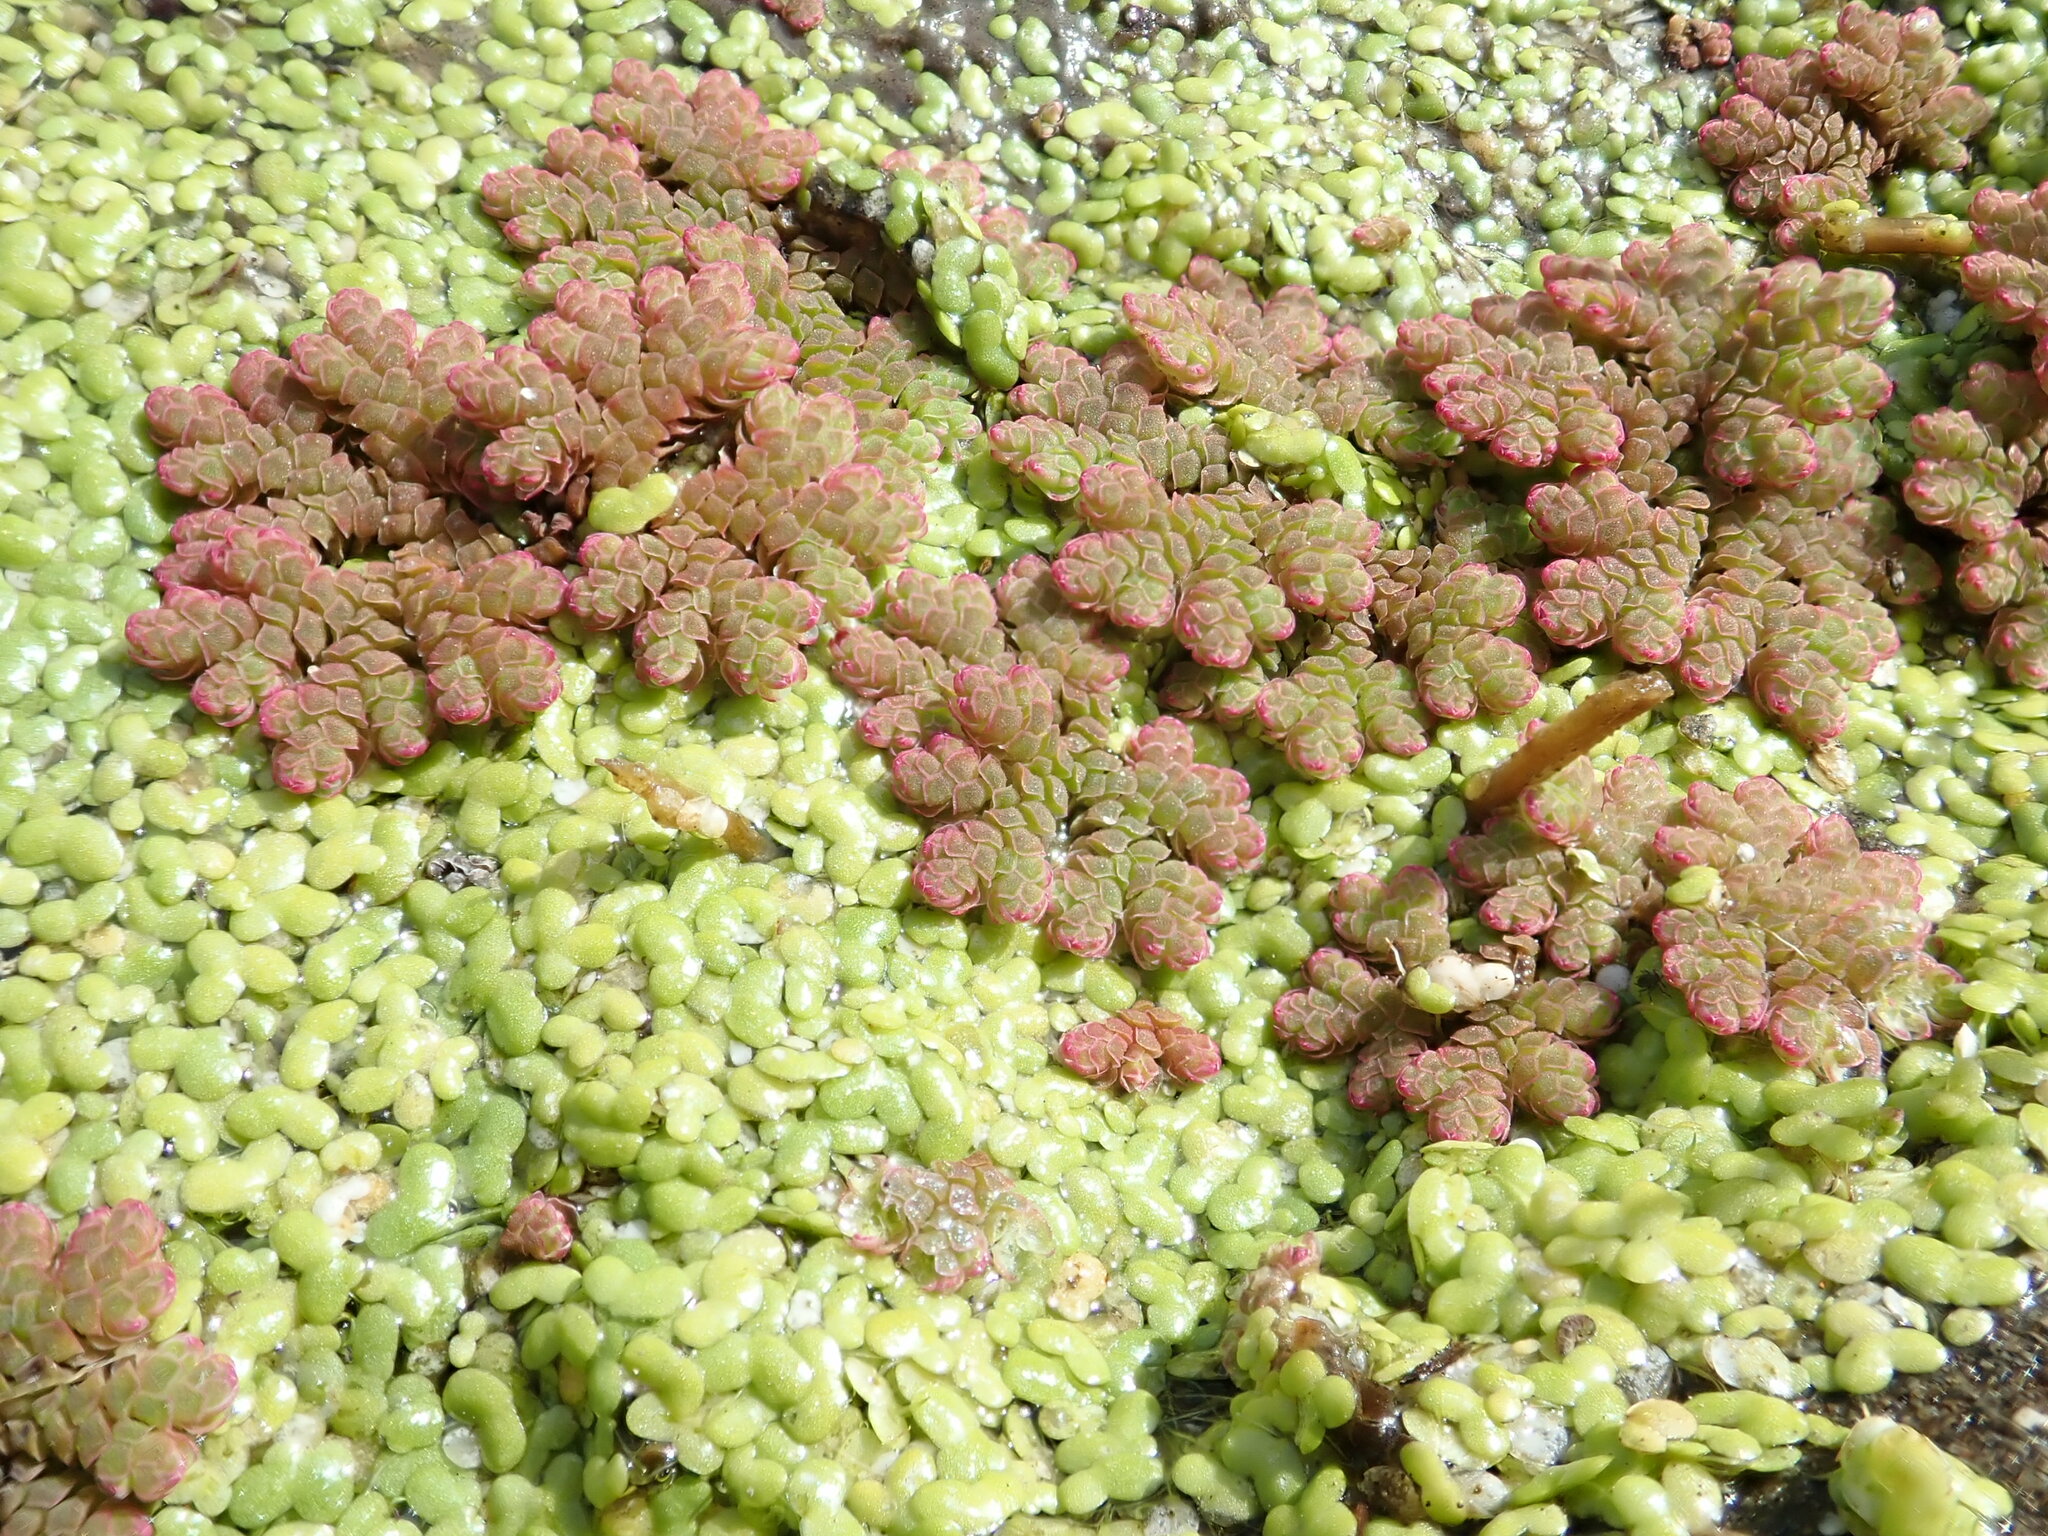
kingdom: Plantae
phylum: Tracheophyta
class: Polypodiopsida
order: Salviniales
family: Salviniaceae
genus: Azolla
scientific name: Azolla rubra
